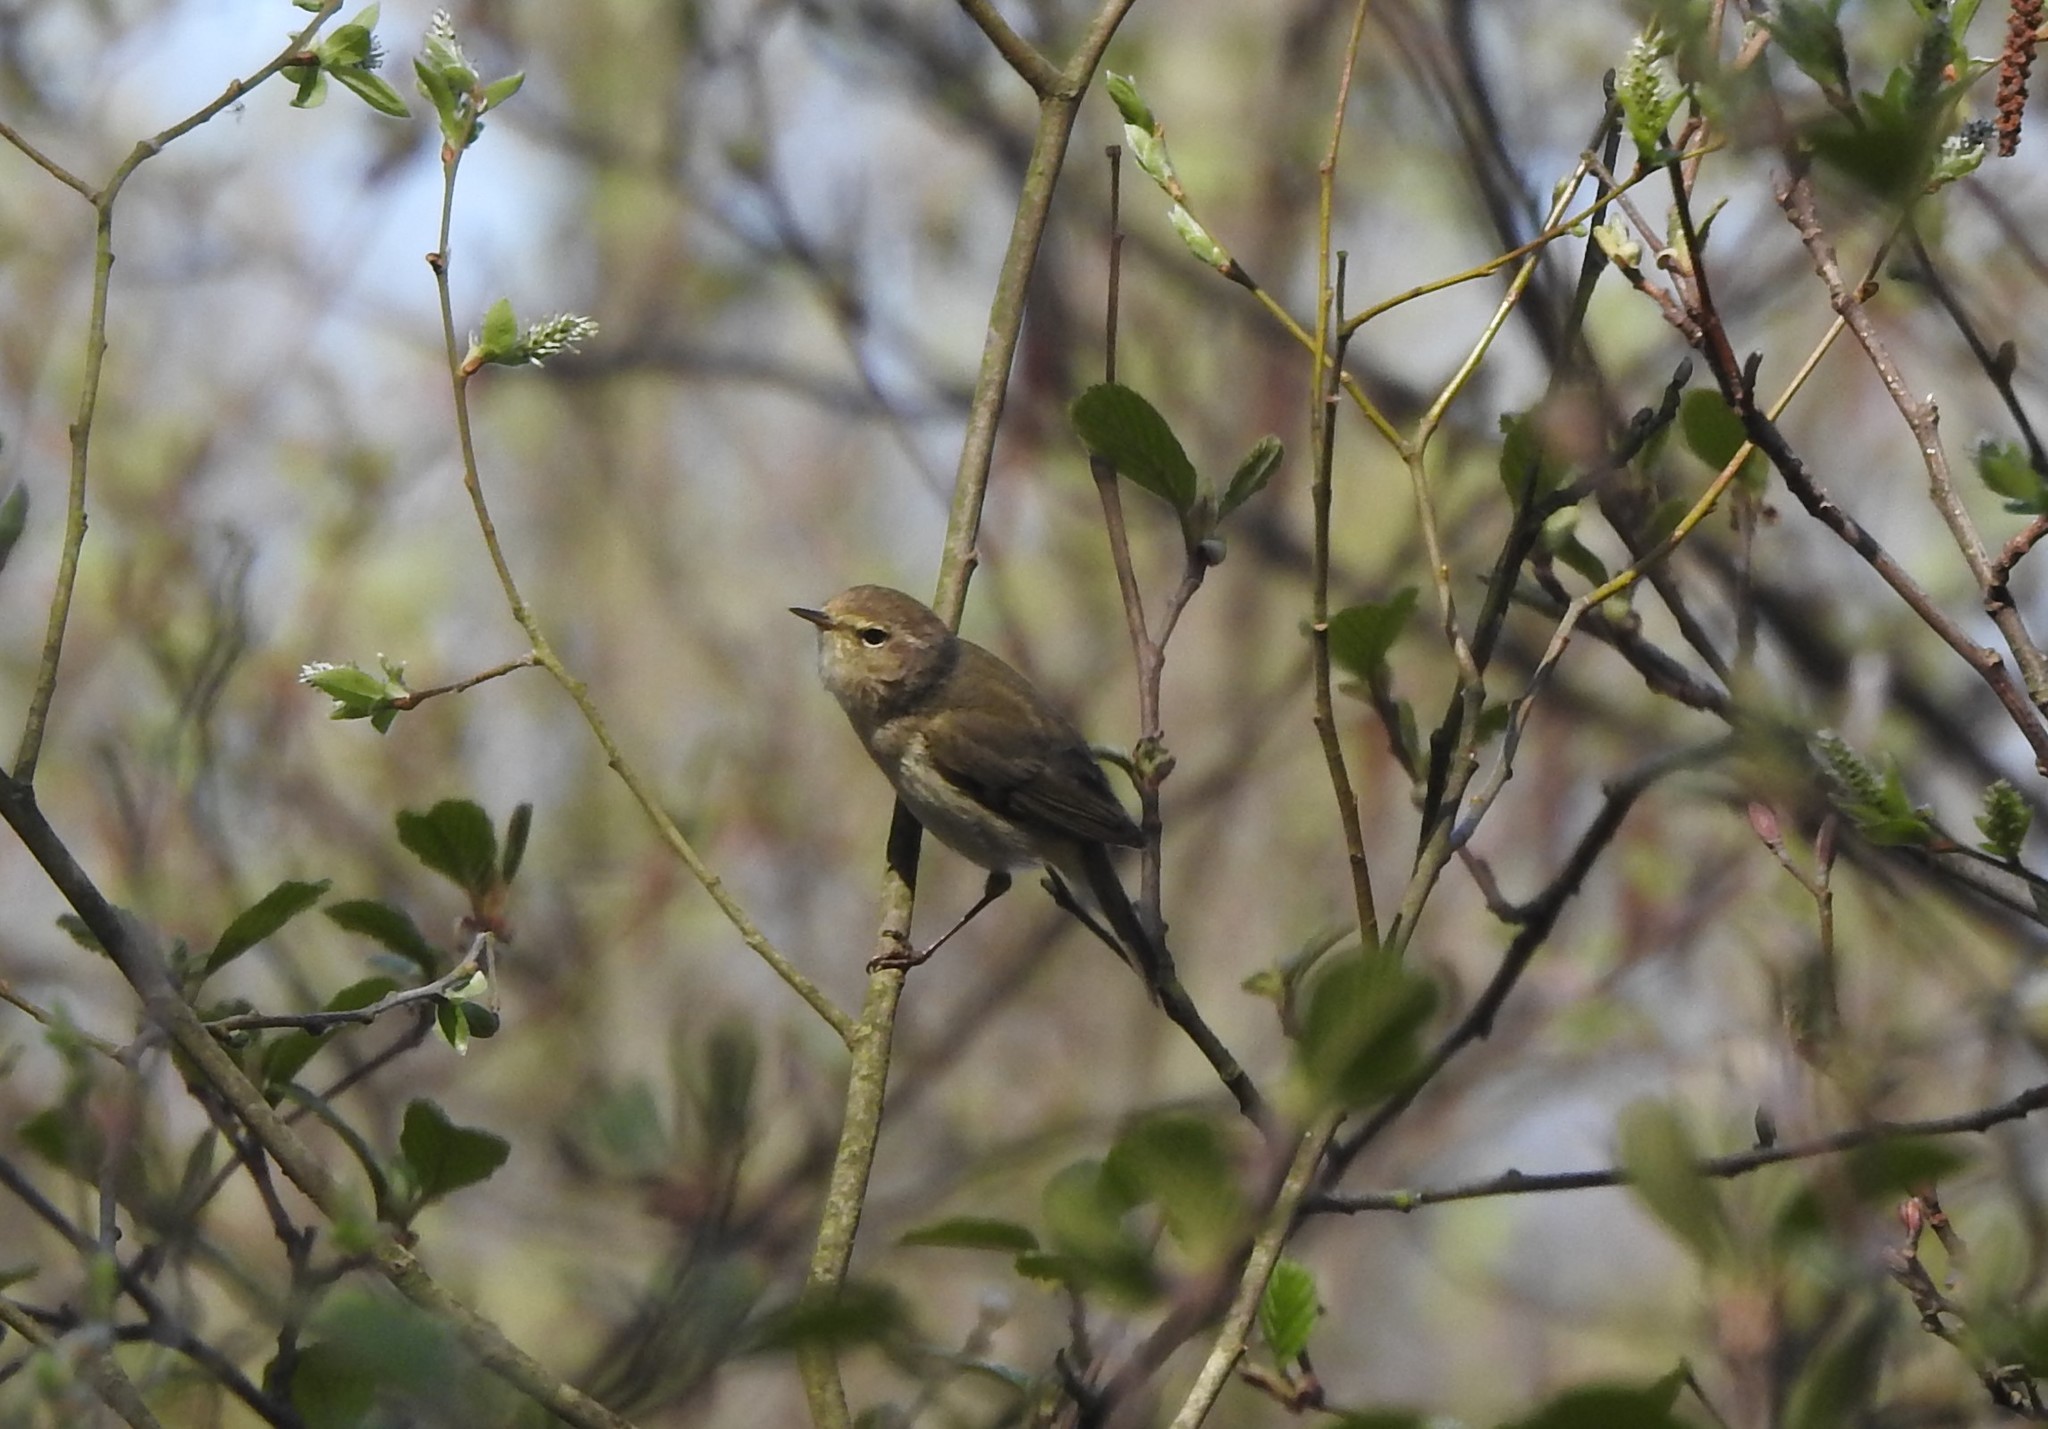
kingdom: Animalia
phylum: Chordata
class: Aves
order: Passeriformes
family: Phylloscopidae
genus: Phylloscopus
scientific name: Phylloscopus collybita
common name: Common chiffchaff
